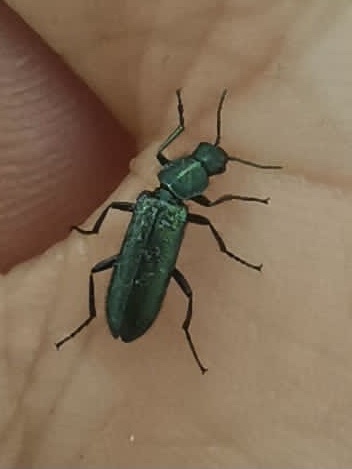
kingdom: Animalia
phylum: Arthropoda
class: Insecta
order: Coleoptera
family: Dasytidae
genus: Psilothrix
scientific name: Psilothrix viridicoerulea
